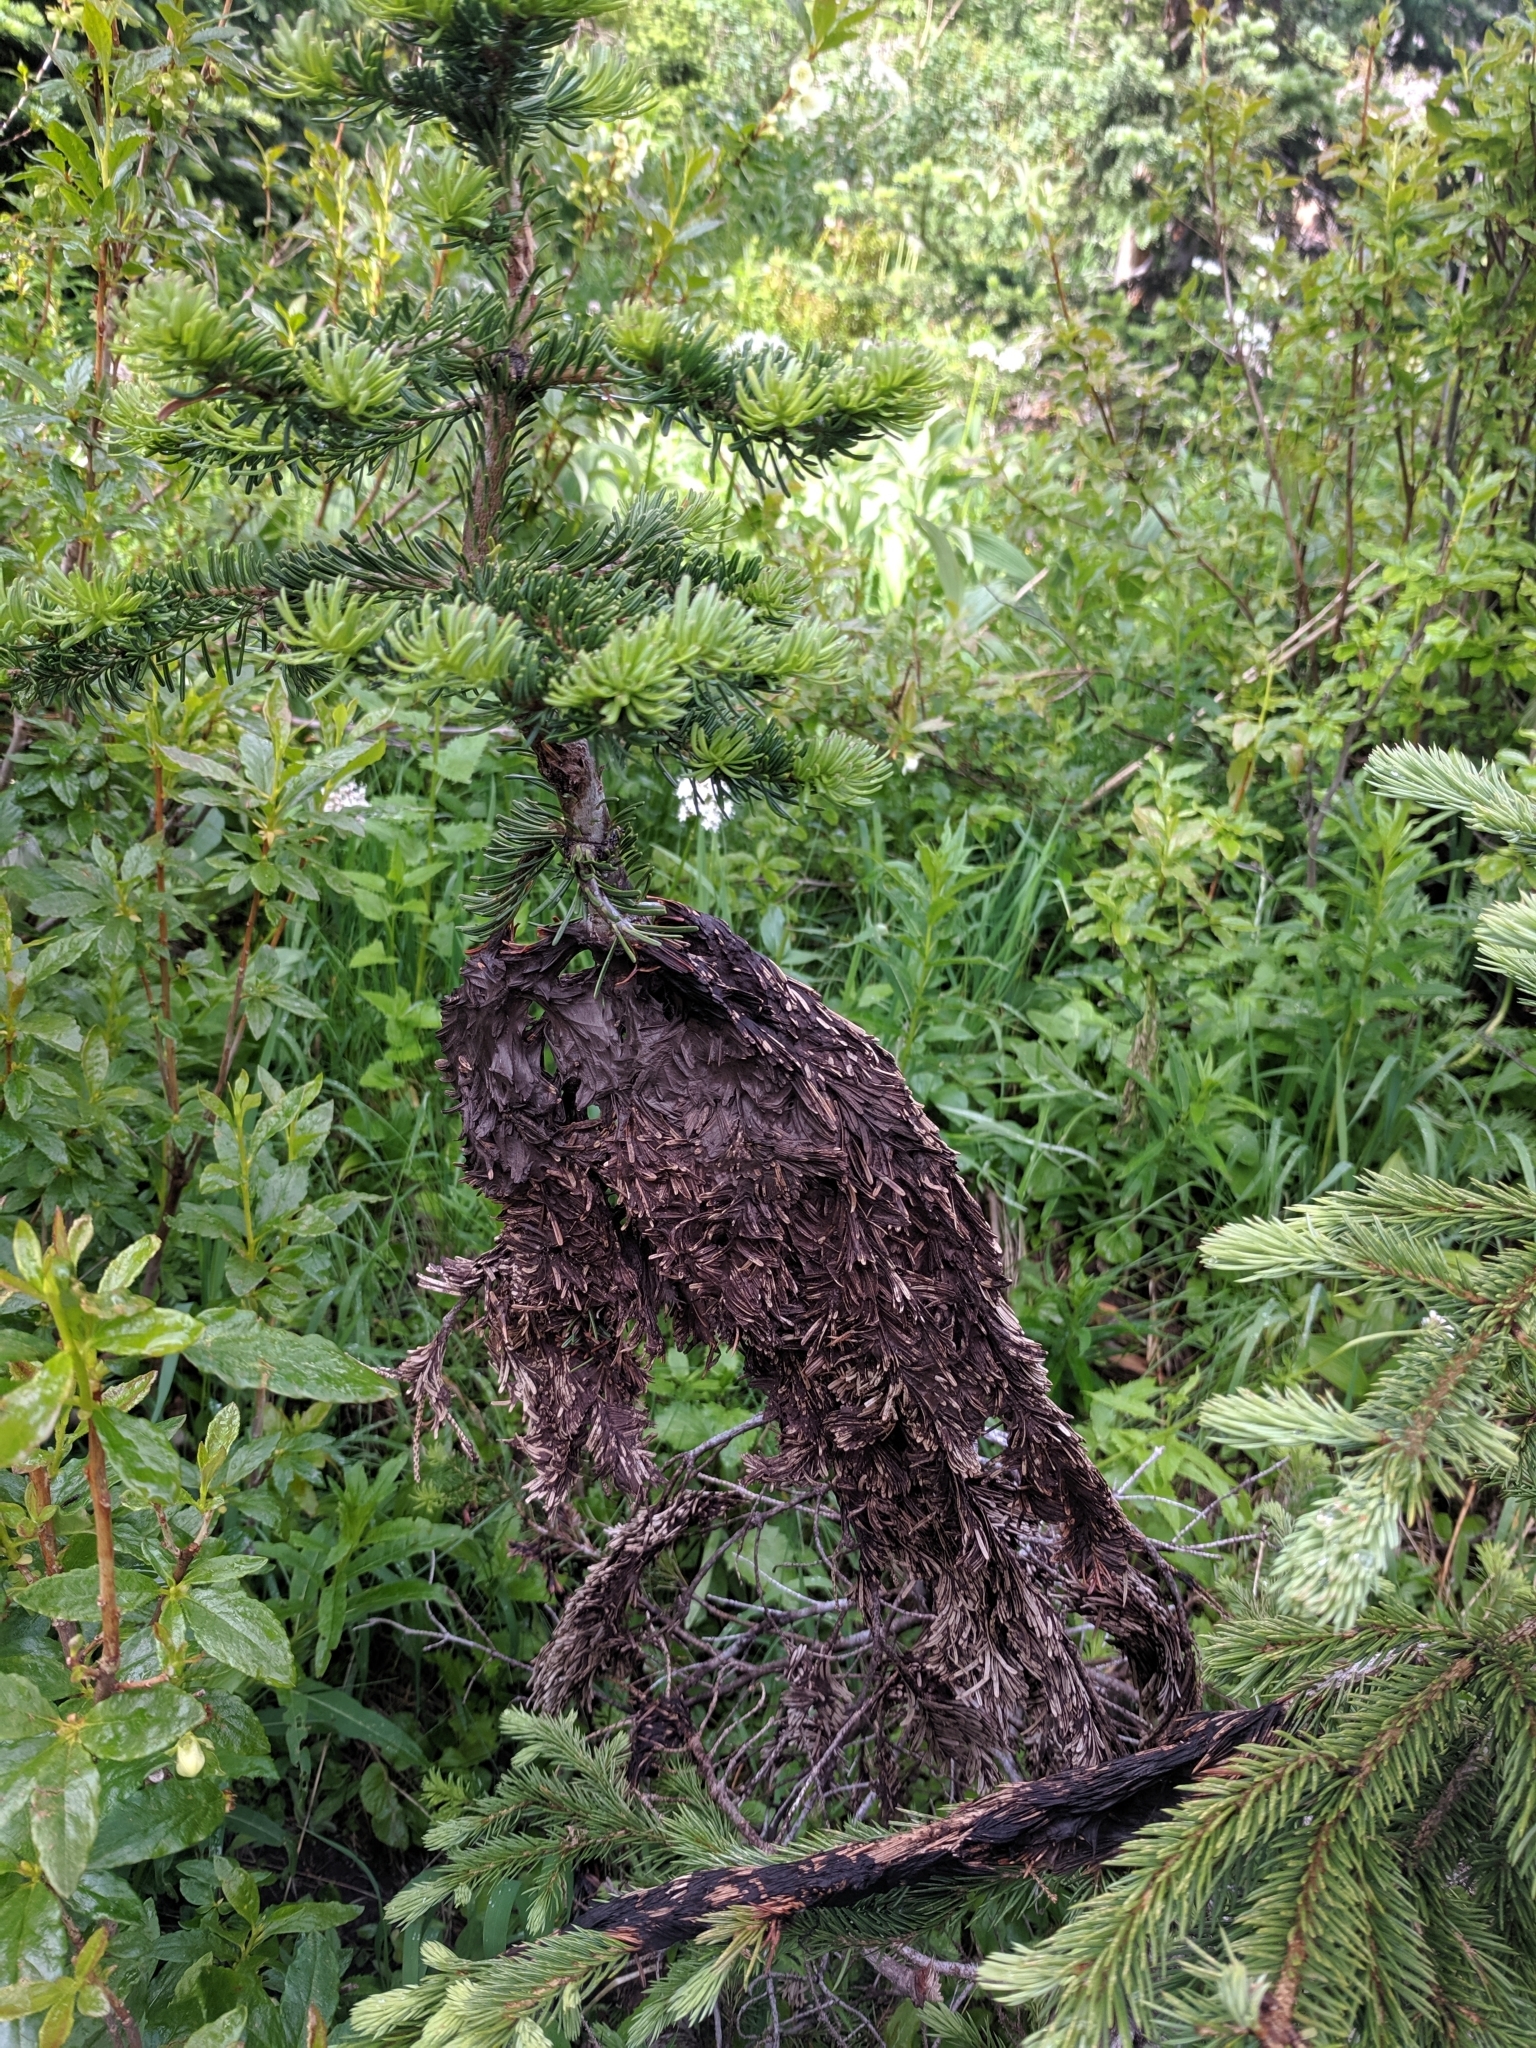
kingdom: Fungi
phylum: Ascomycota
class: Dothideomycetes
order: Pleosporales
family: Melanommataceae
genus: Herpotrichia
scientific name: Herpotrichia pinetorum
